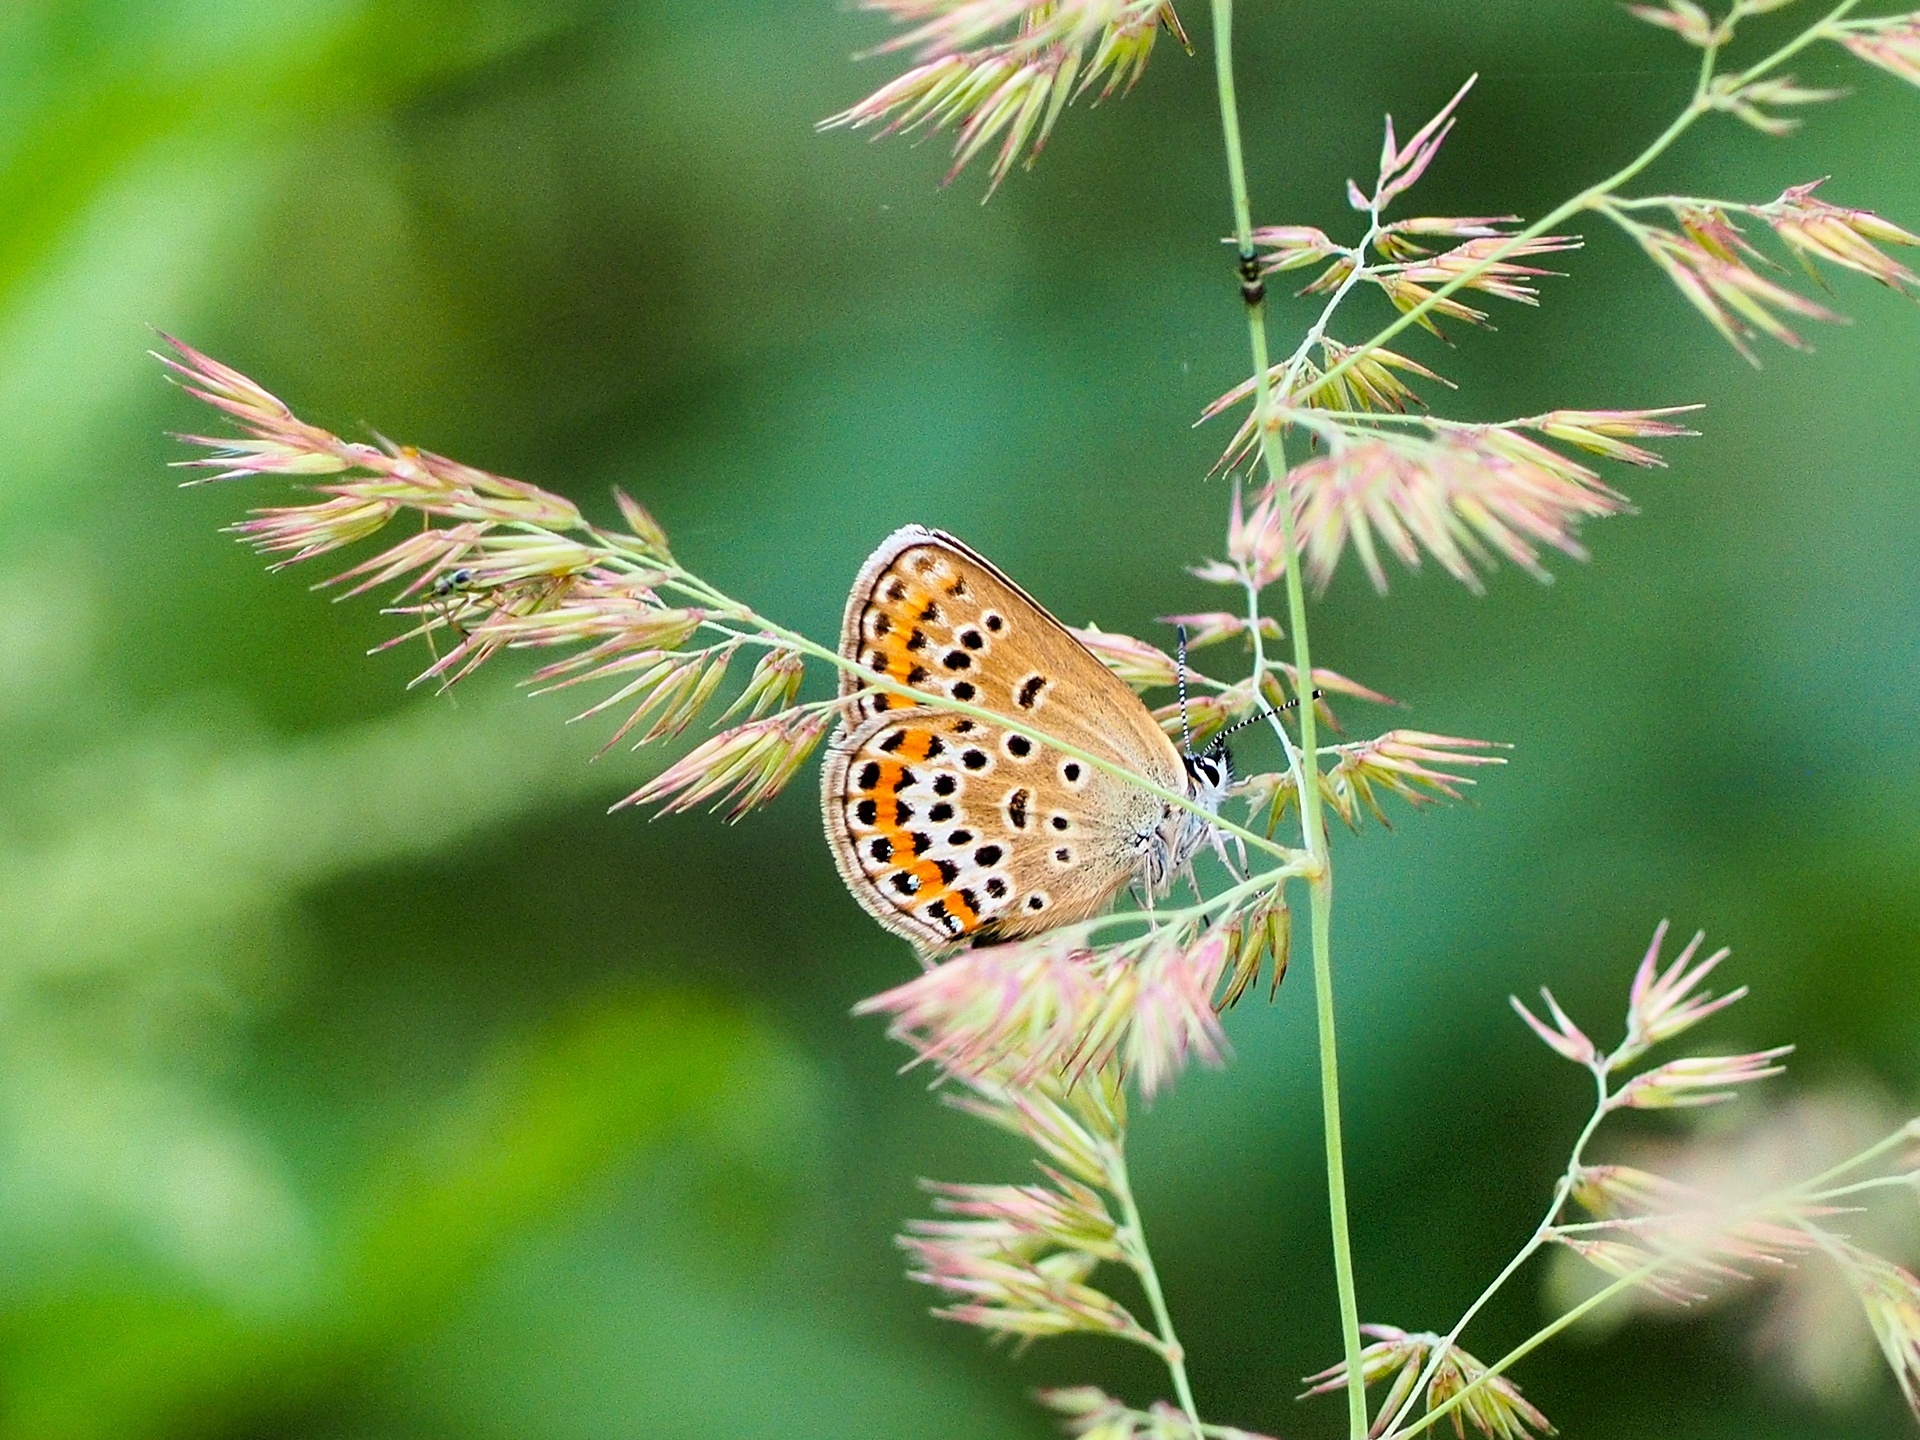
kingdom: Animalia
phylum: Arthropoda
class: Insecta
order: Lepidoptera
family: Lycaenidae
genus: Plebejus
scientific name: Plebejus argus
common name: Silver-studded blue
